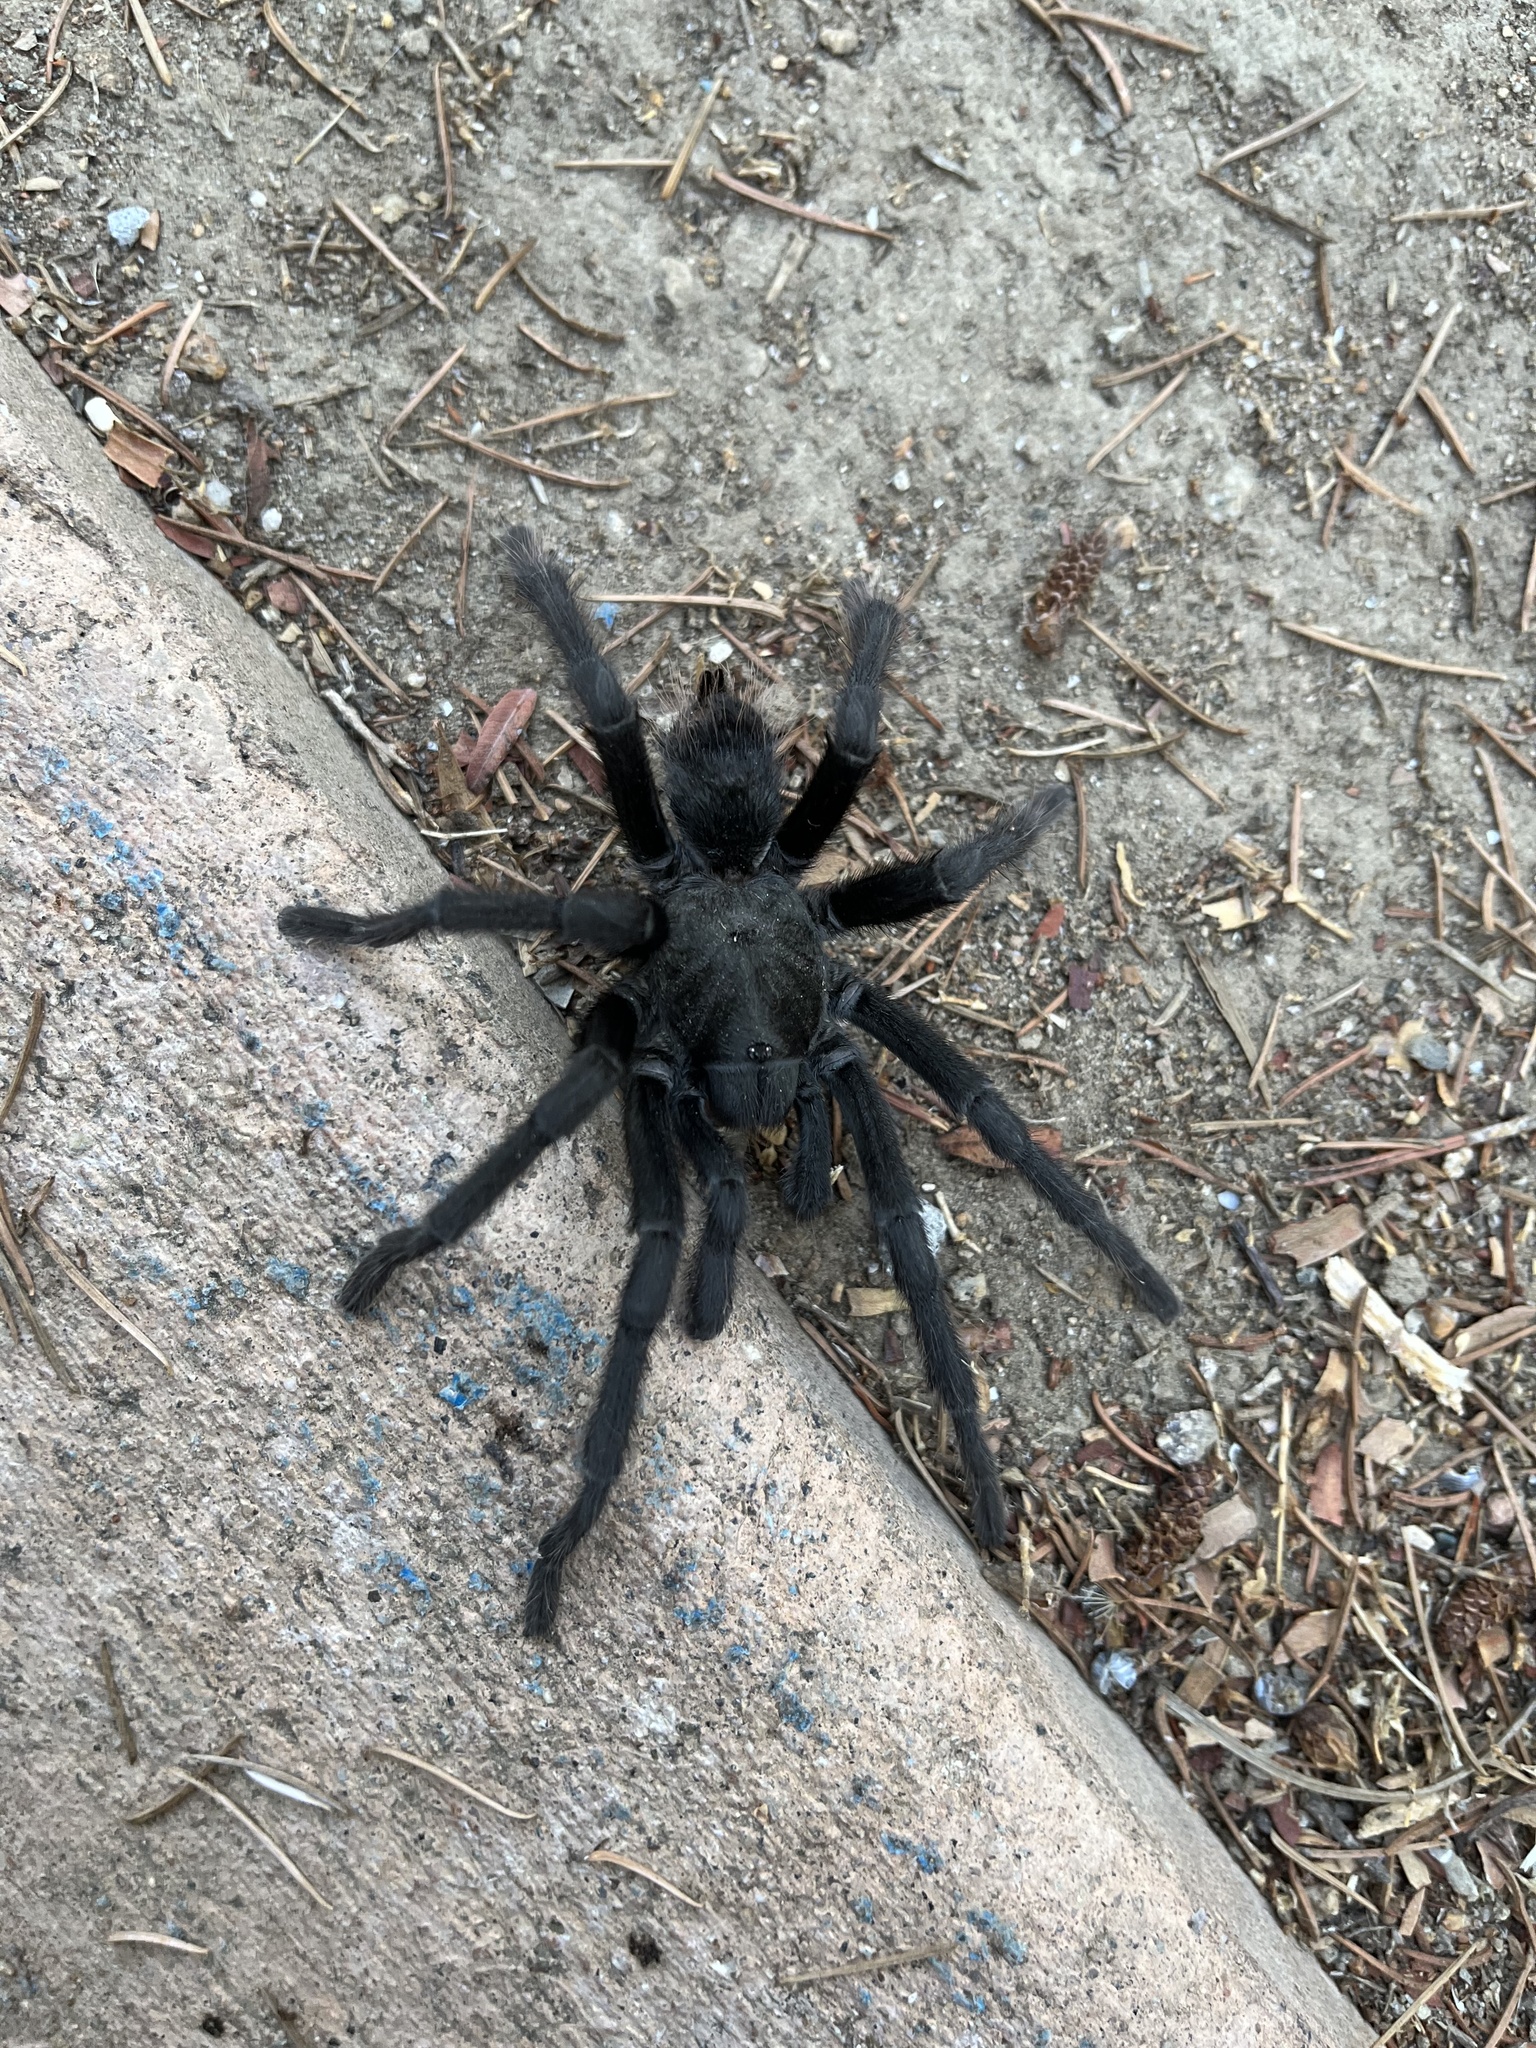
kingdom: Animalia
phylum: Arthropoda
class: Arachnida
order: Araneae
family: Theraphosidae
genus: Aphonopelma
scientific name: Aphonopelma steindachneri
